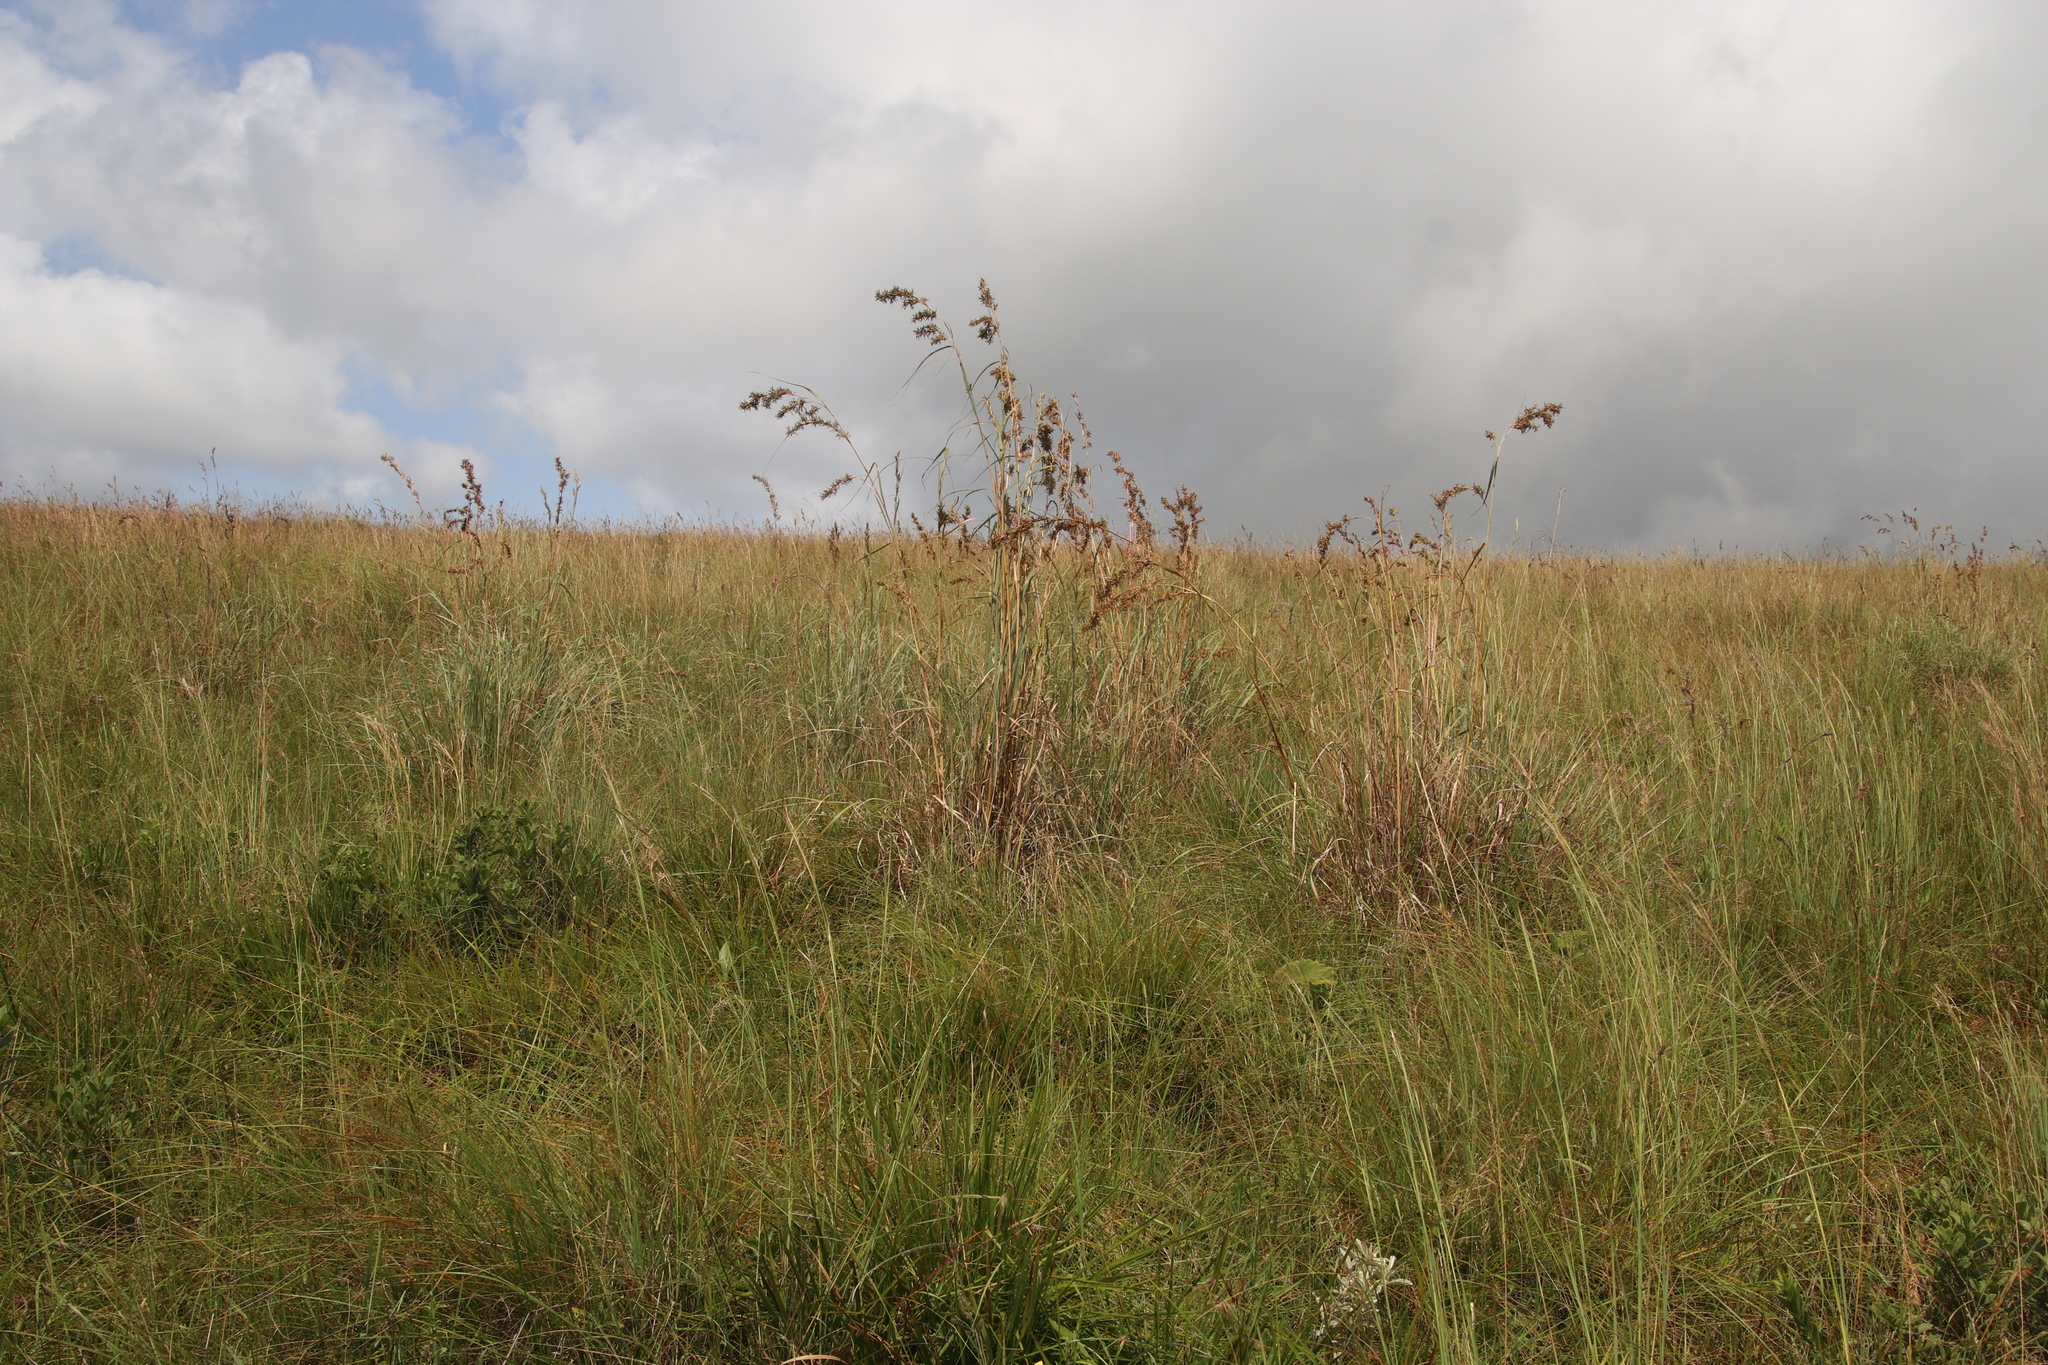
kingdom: Plantae
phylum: Tracheophyta
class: Liliopsida
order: Poales
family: Poaceae
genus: Cymbopogon
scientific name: Cymbopogon nardus
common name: Giant turpentine grass
